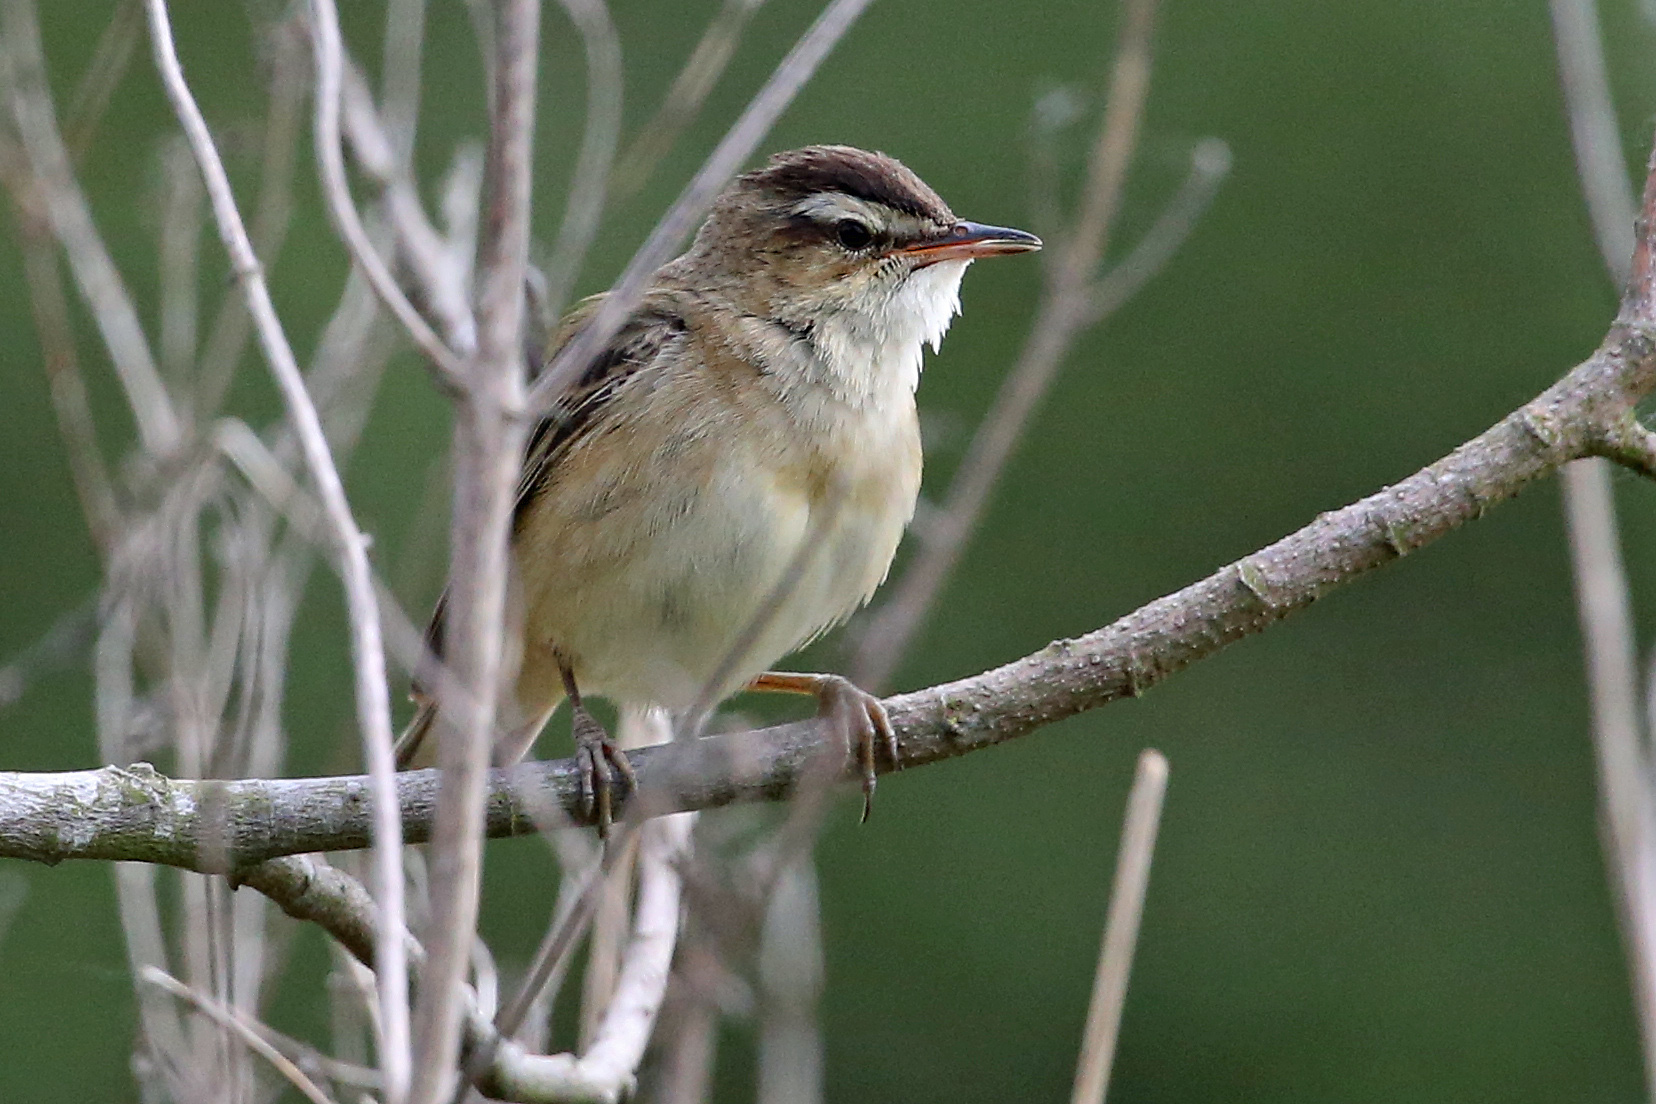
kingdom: Animalia
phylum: Chordata
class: Aves
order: Passeriformes
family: Acrocephalidae
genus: Acrocephalus
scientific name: Acrocephalus schoenobaenus
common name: Sedge warbler
